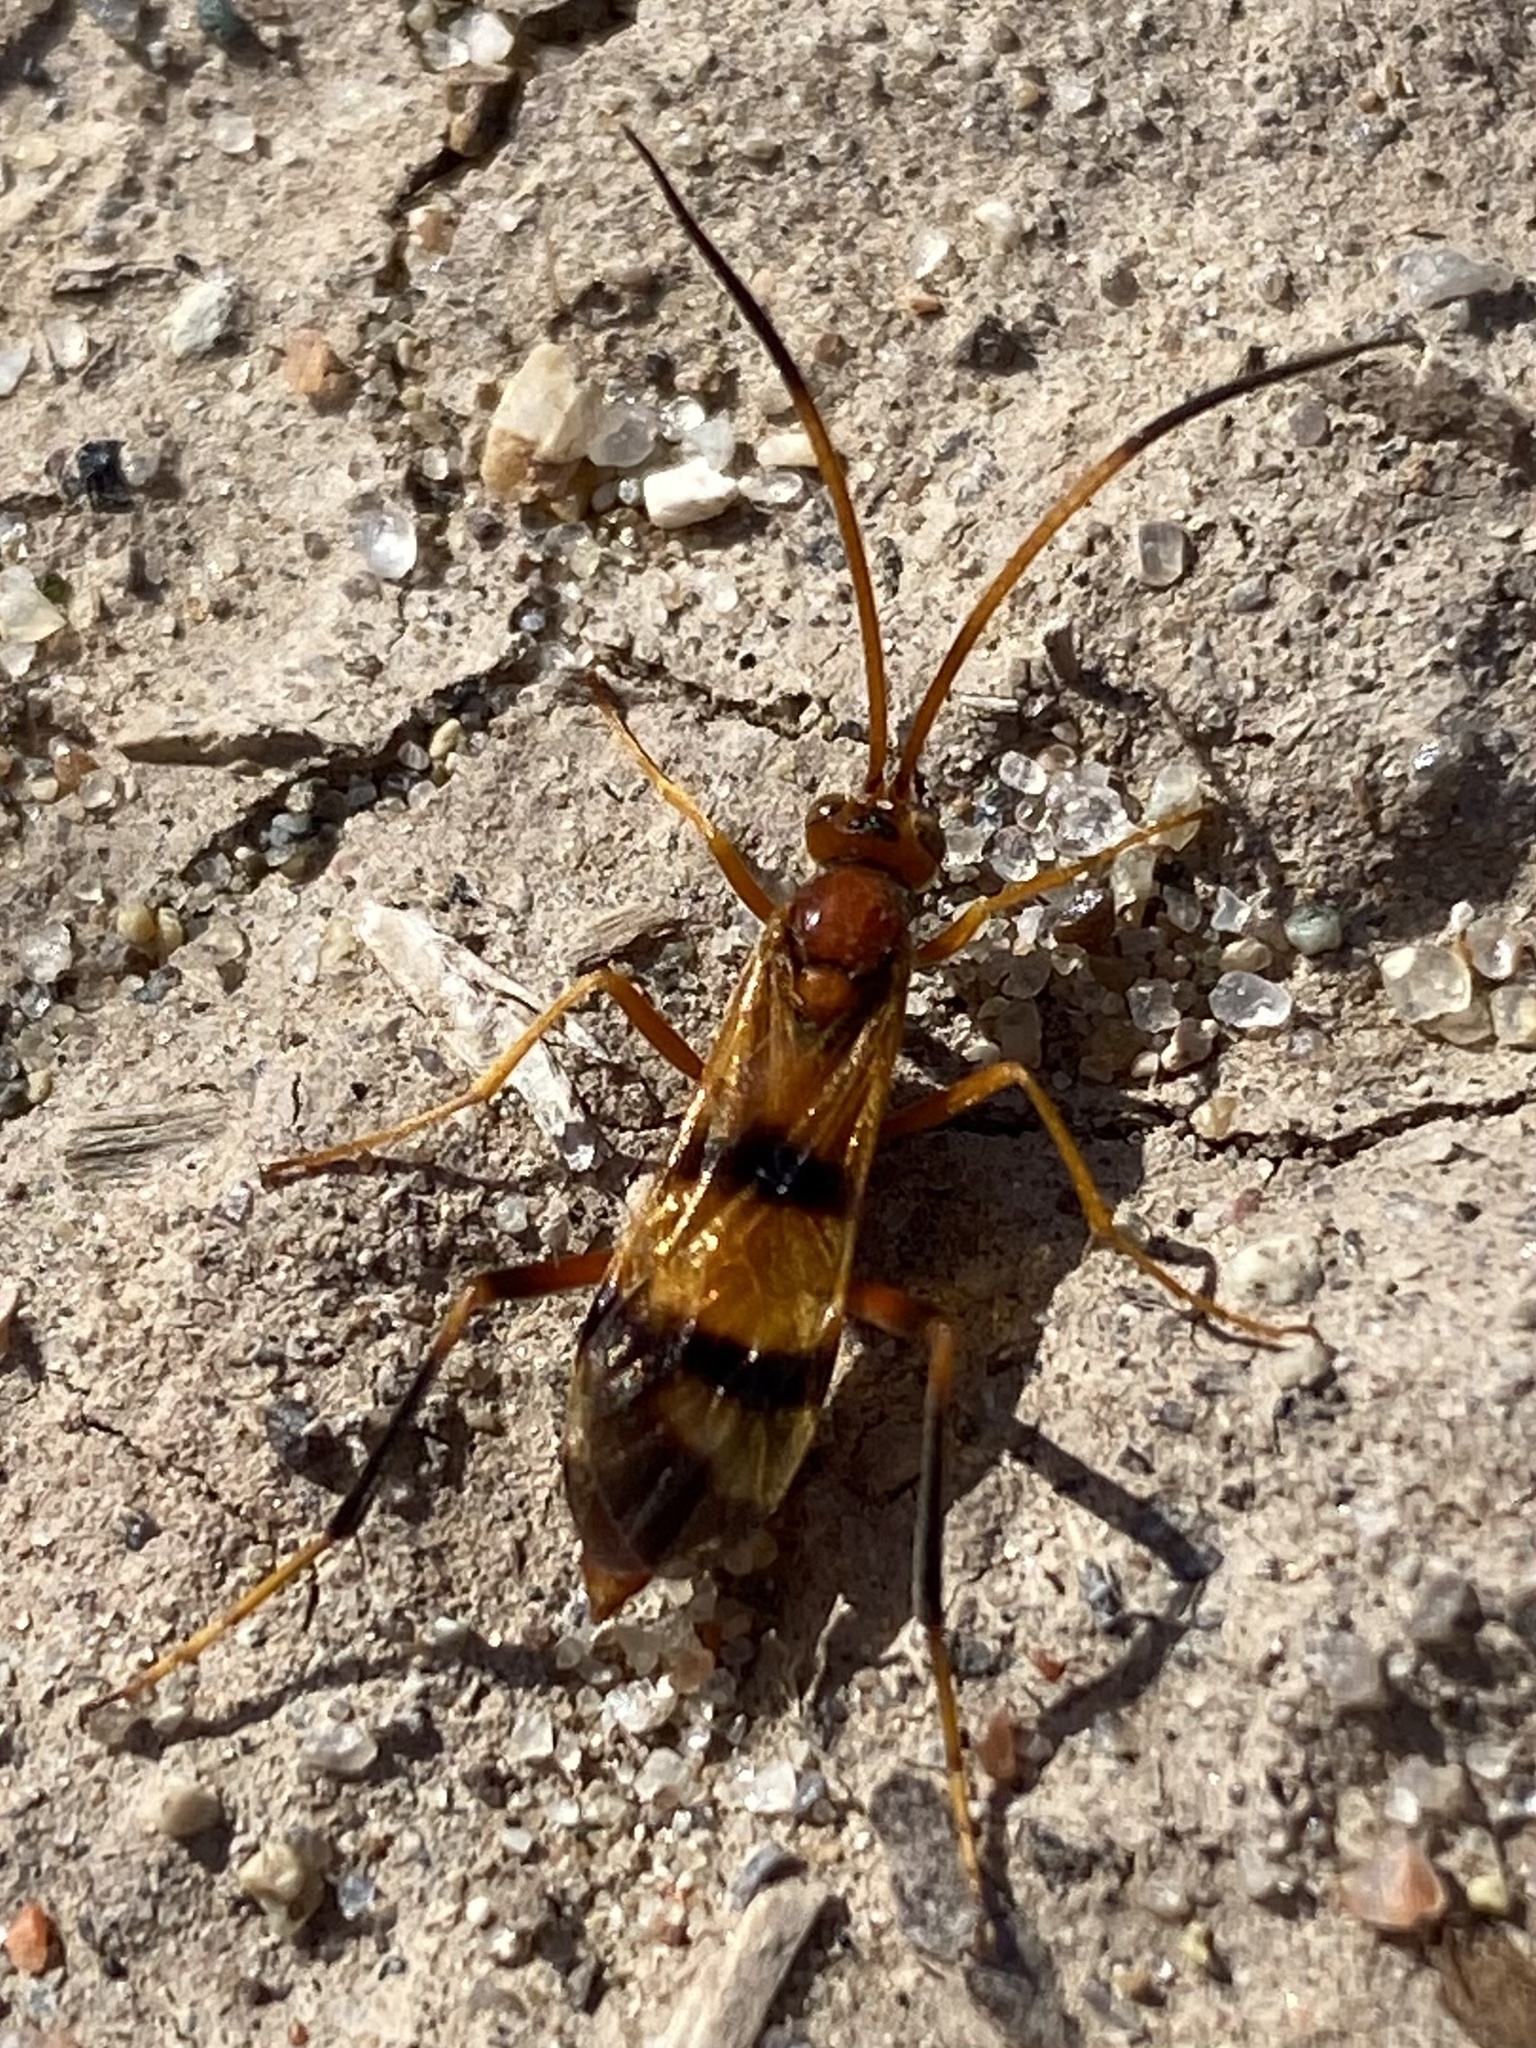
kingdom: Animalia
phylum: Arthropoda
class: Insecta
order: Hymenoptera
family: Ichneumonidae
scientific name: Ichneumonidae
